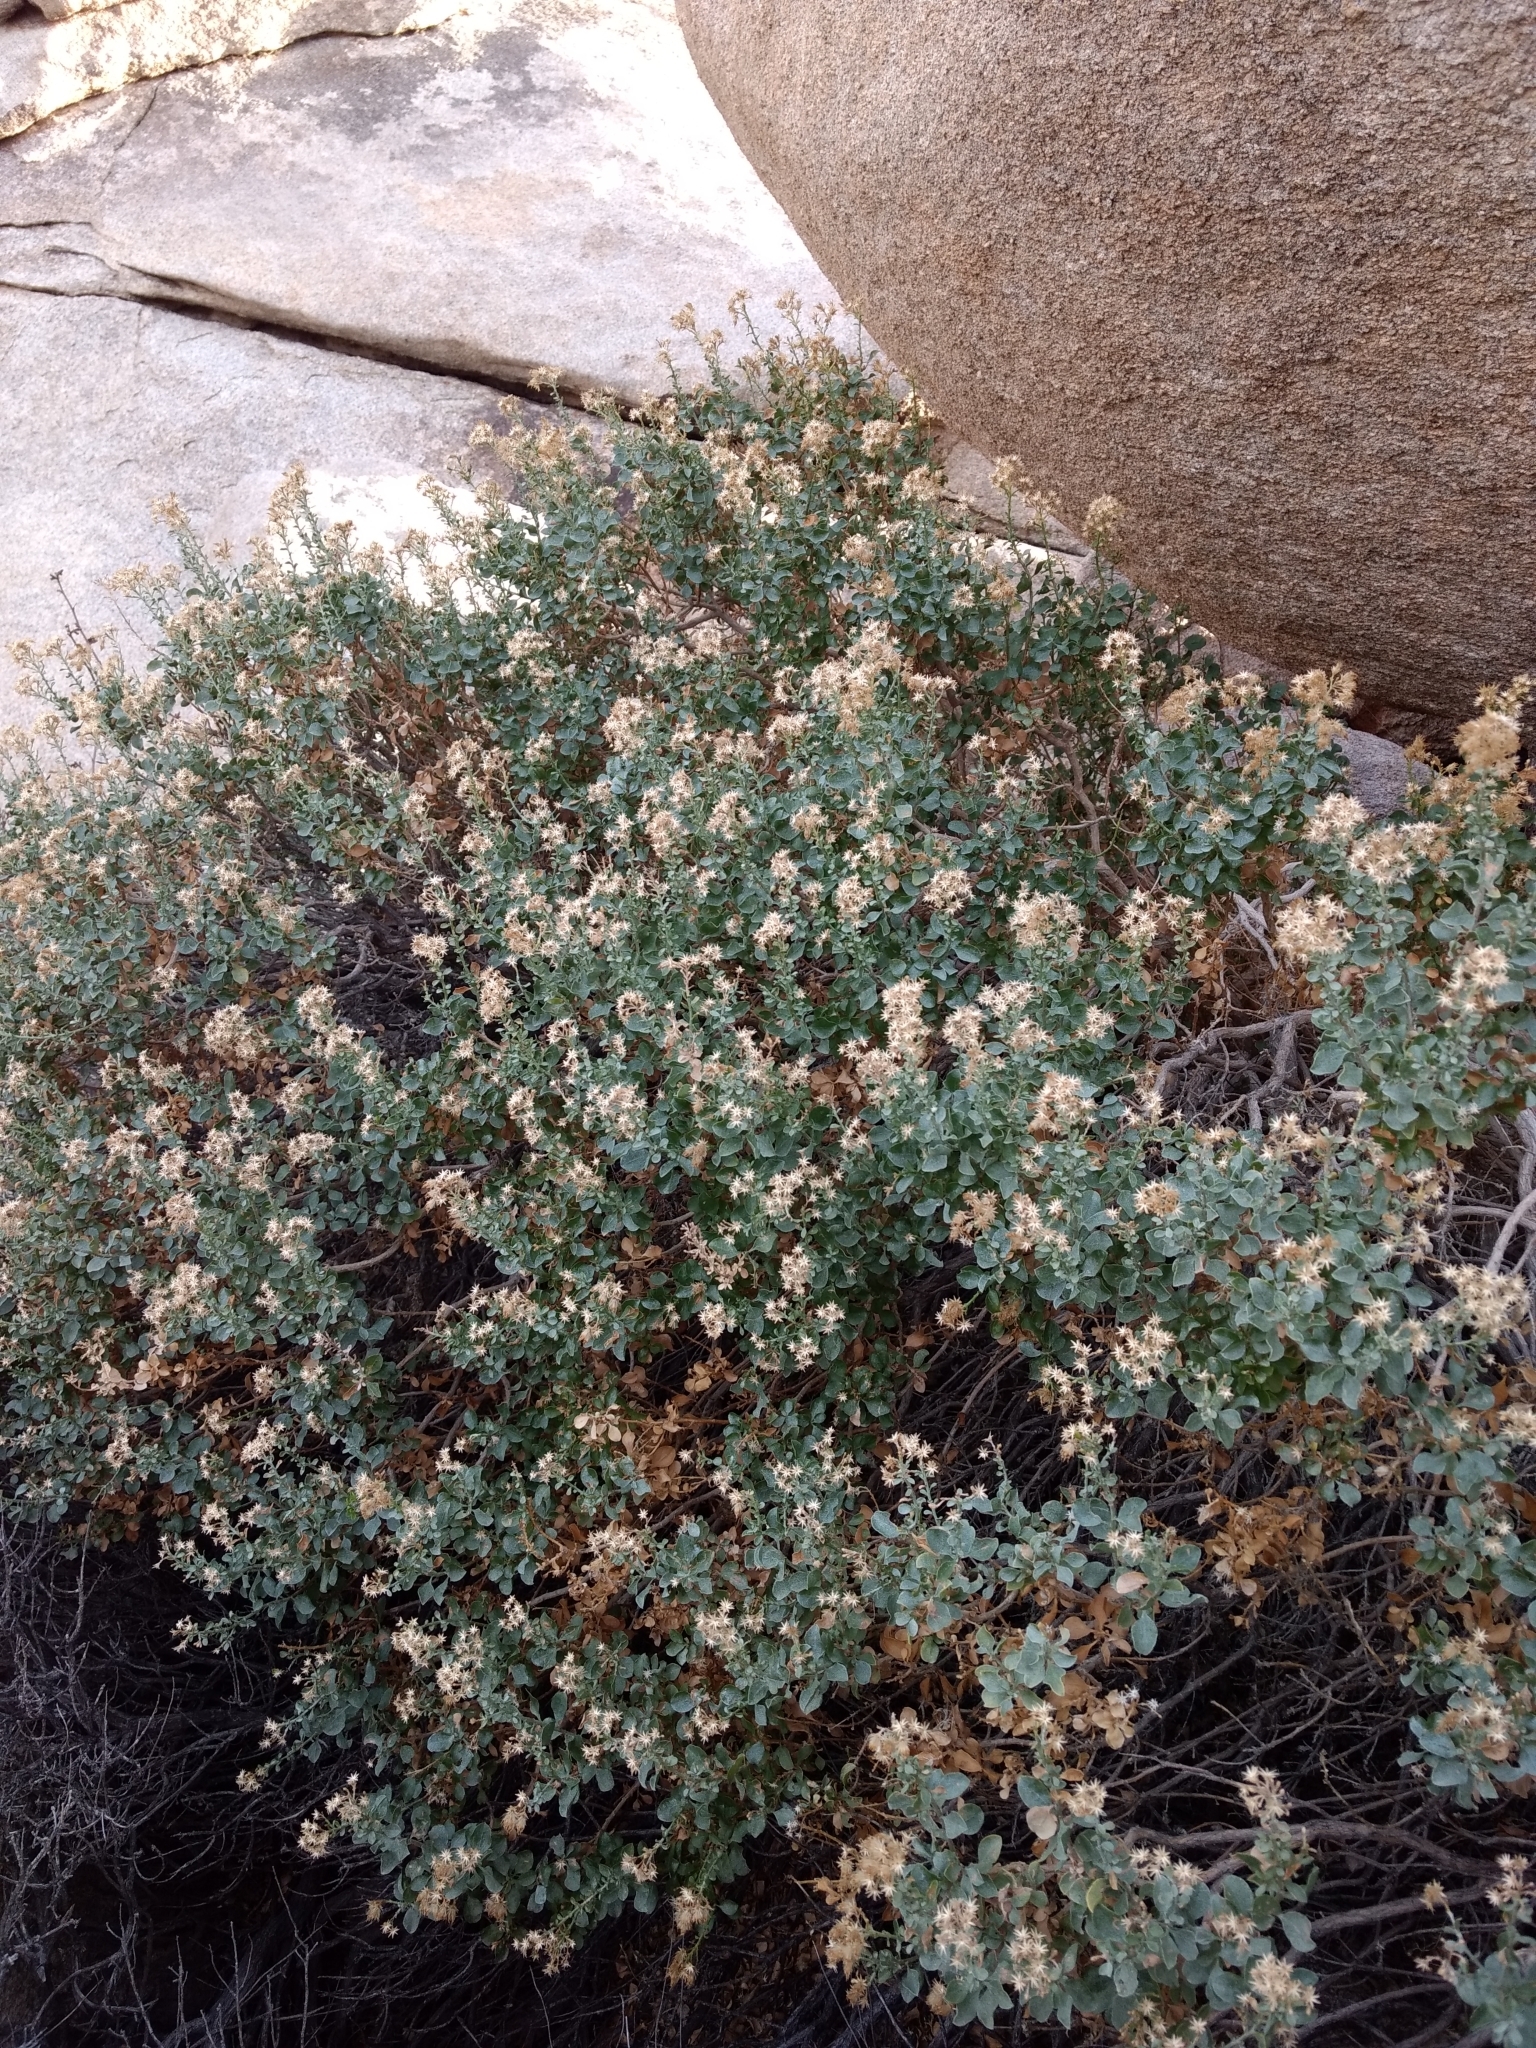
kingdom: Plantae
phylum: Tracheophyta
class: Magnoliopsida
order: Asterales
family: Asteraceae
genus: Ericameria
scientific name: Ericameria cuneata
